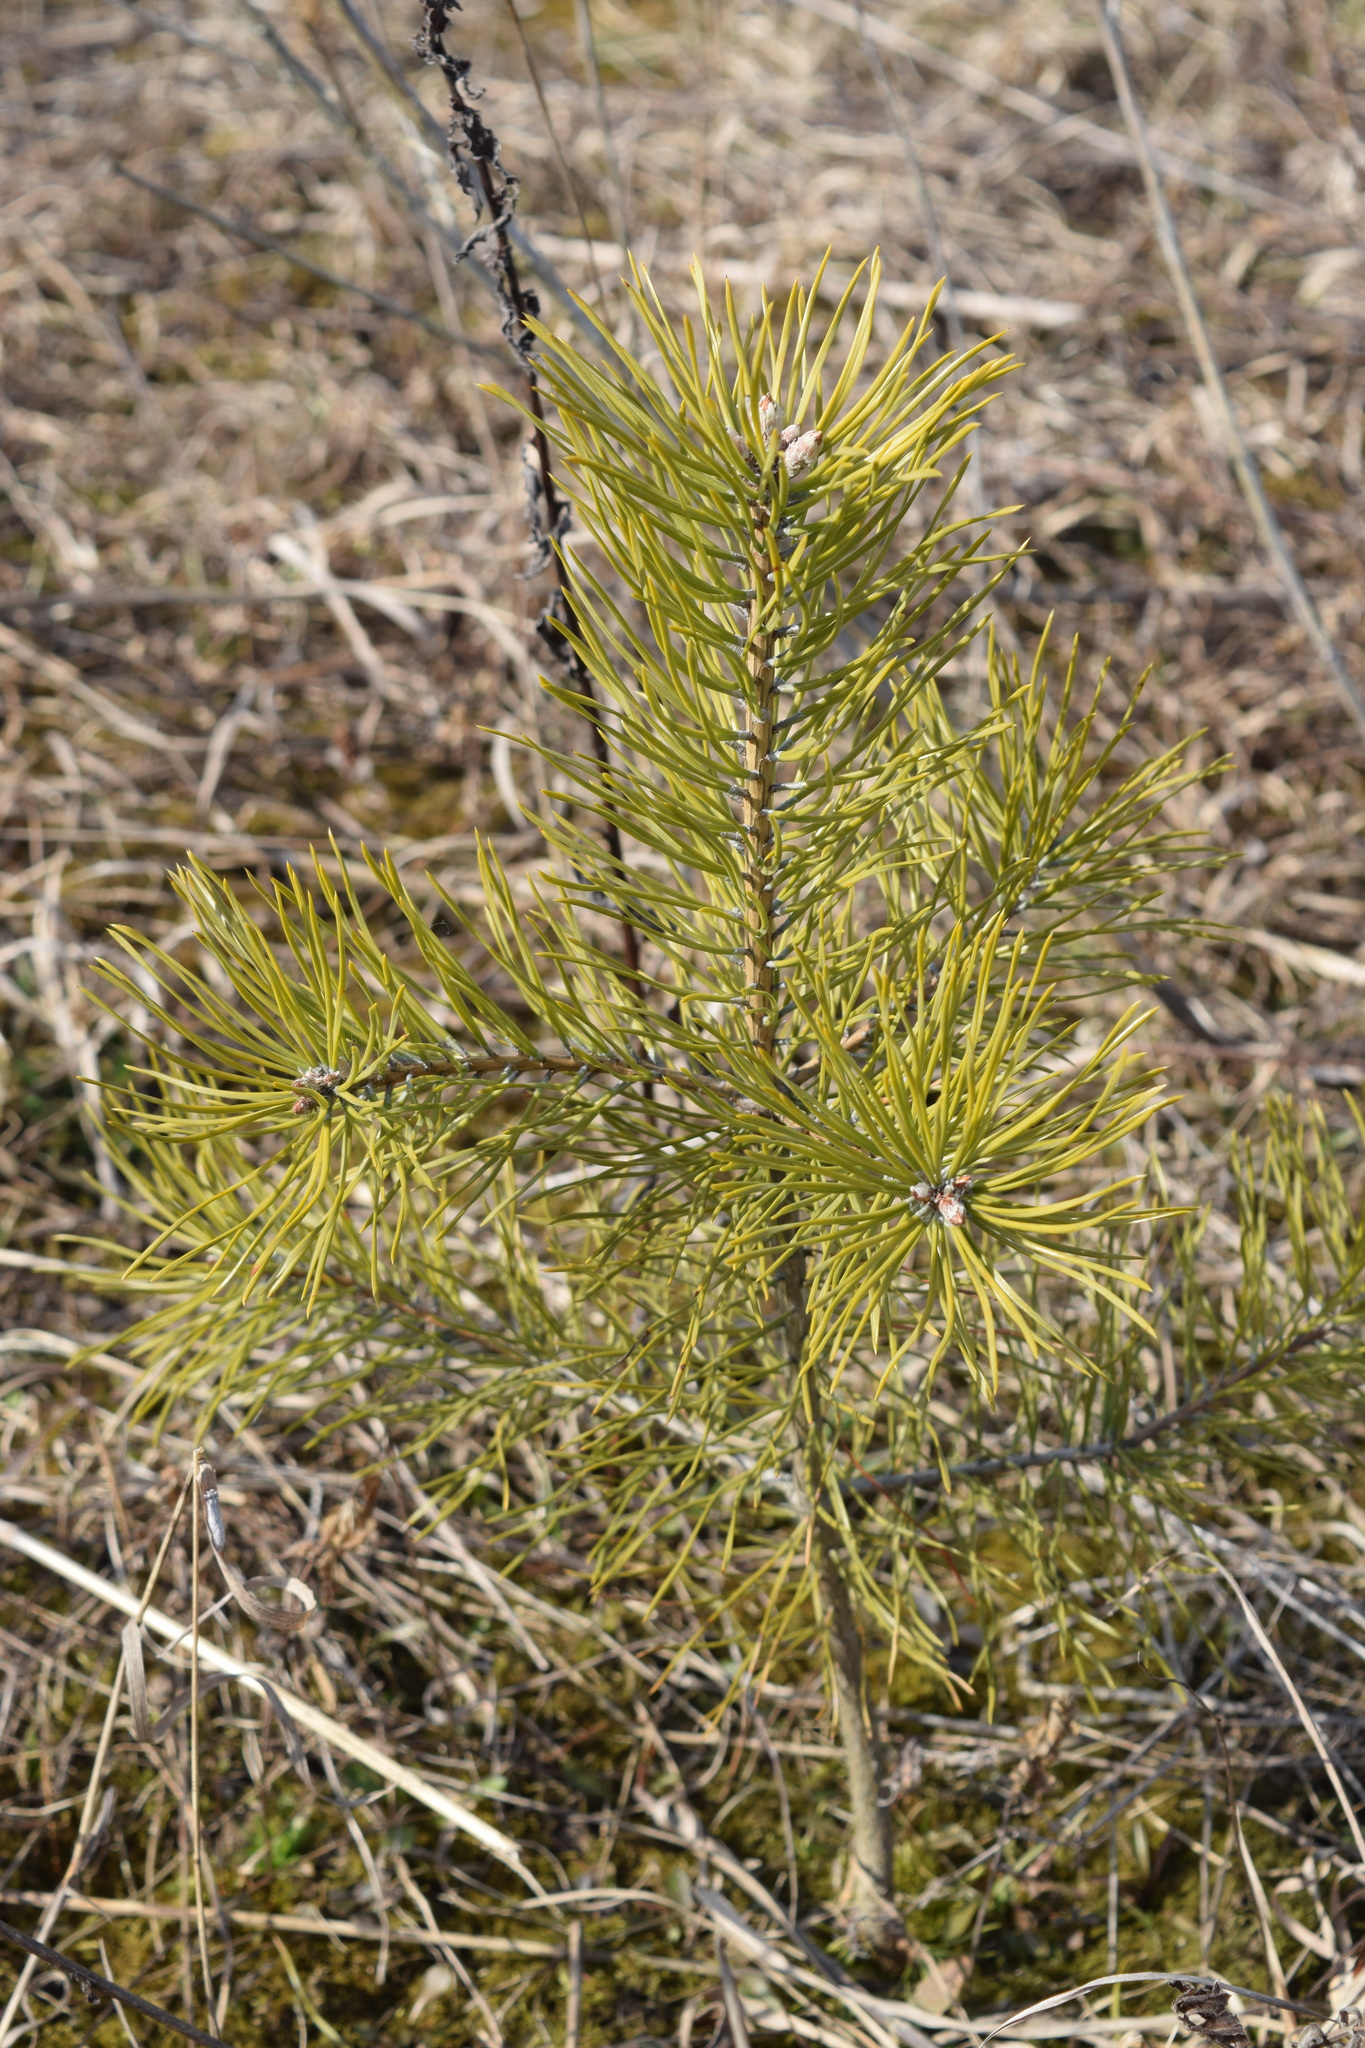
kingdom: Plantae
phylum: Tracheophyta
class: Pinopsida
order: Pinales
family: Pinaceae
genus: Pinus
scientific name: Pinus sylvestris
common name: Scots pine
